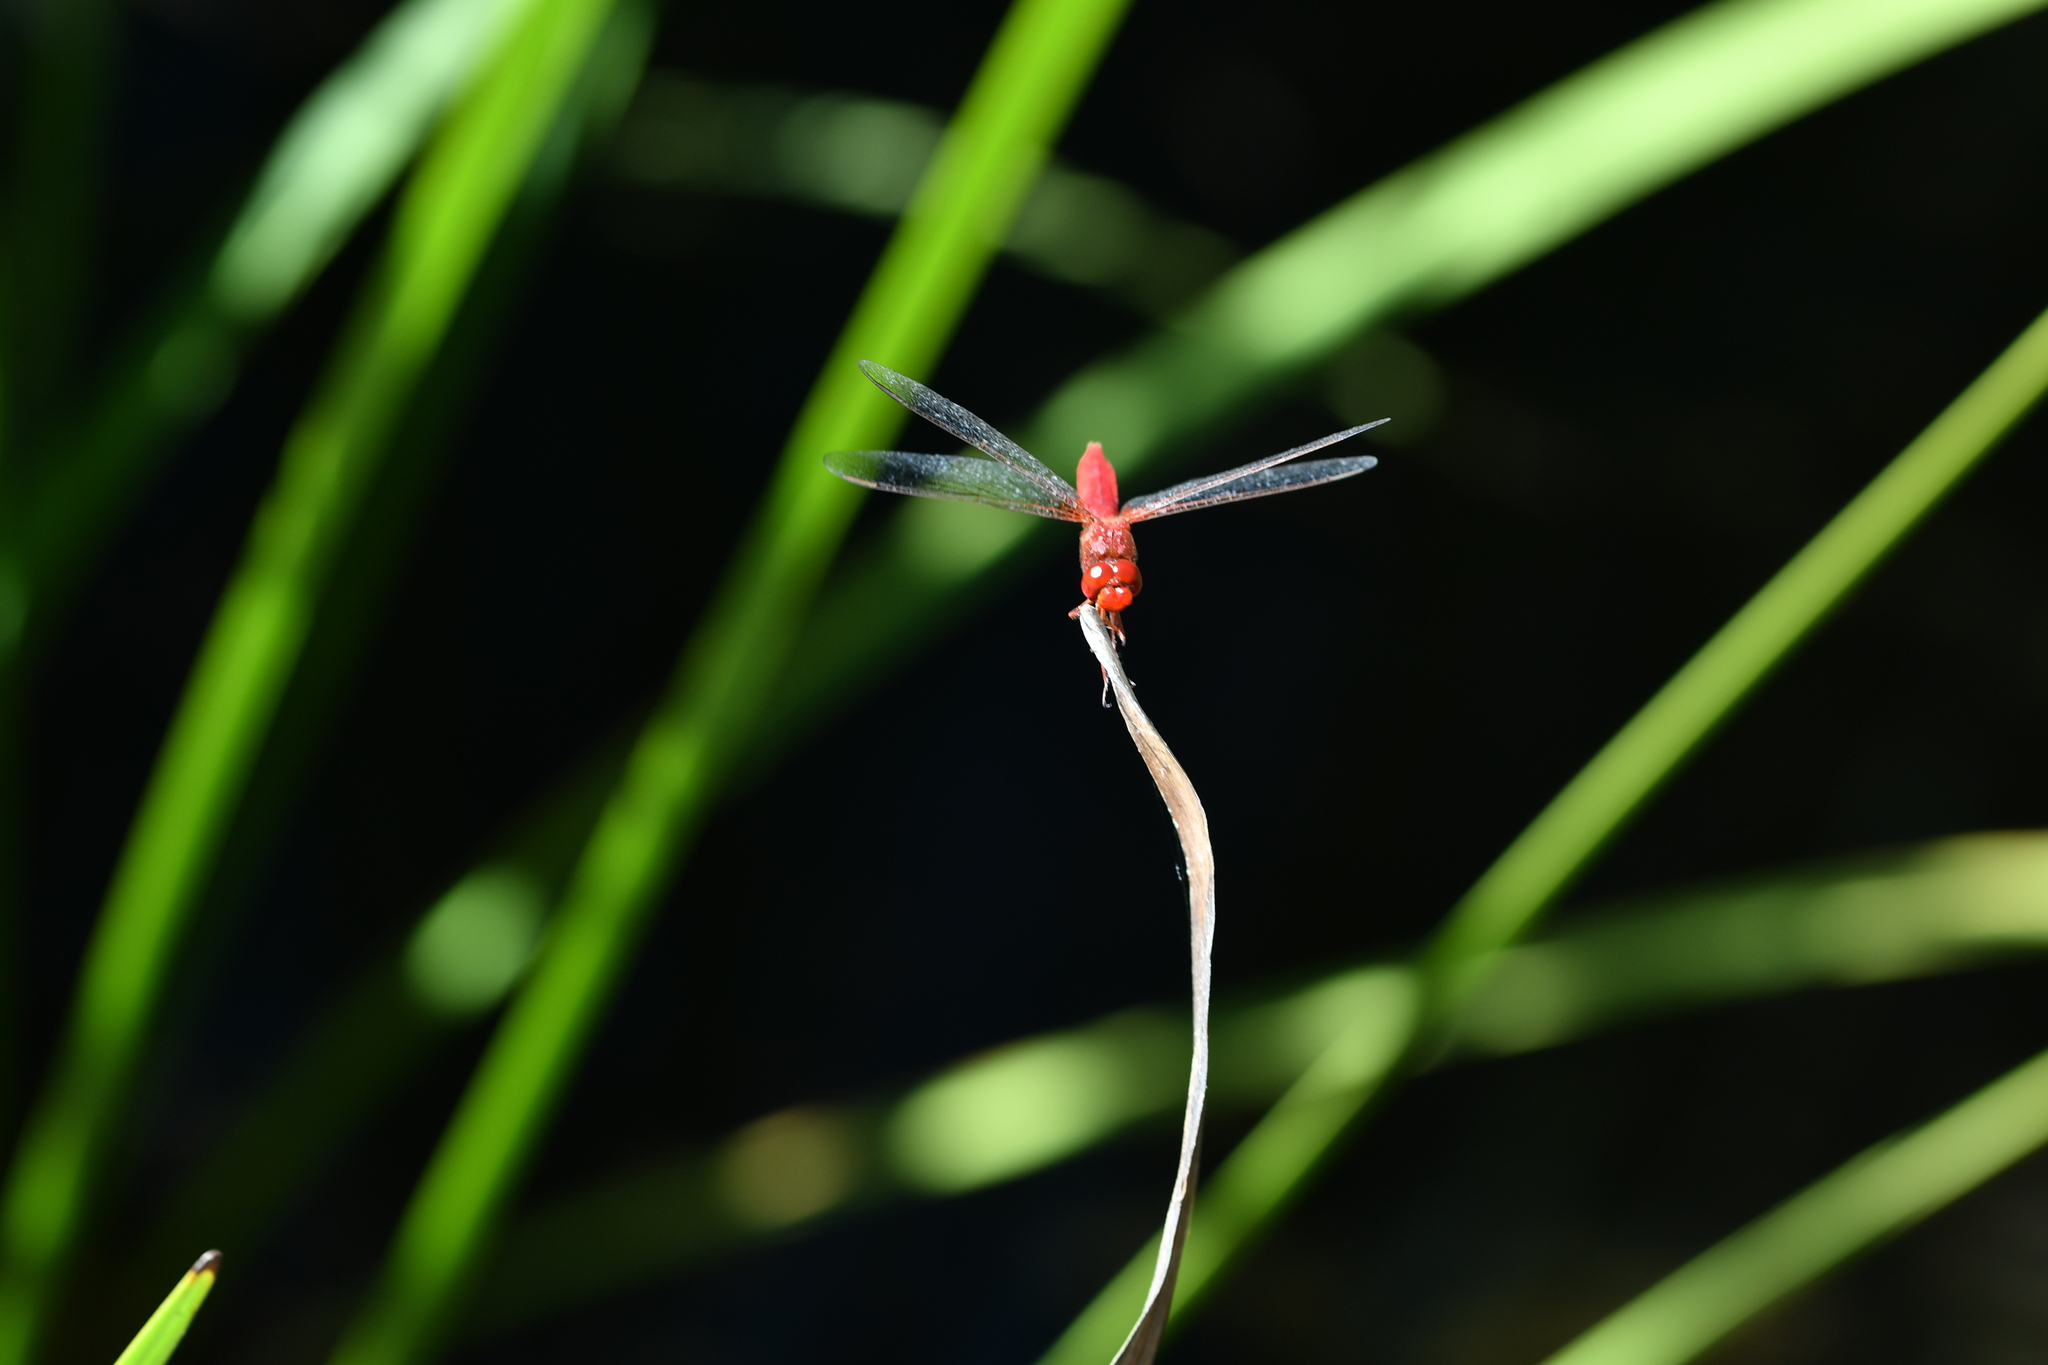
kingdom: Animalia
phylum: Arthropoda
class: Insecta
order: Odonata
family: Libellulidae
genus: Crocothemis
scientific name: Crocothemis erythraea
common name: Scarlet dragonfly
